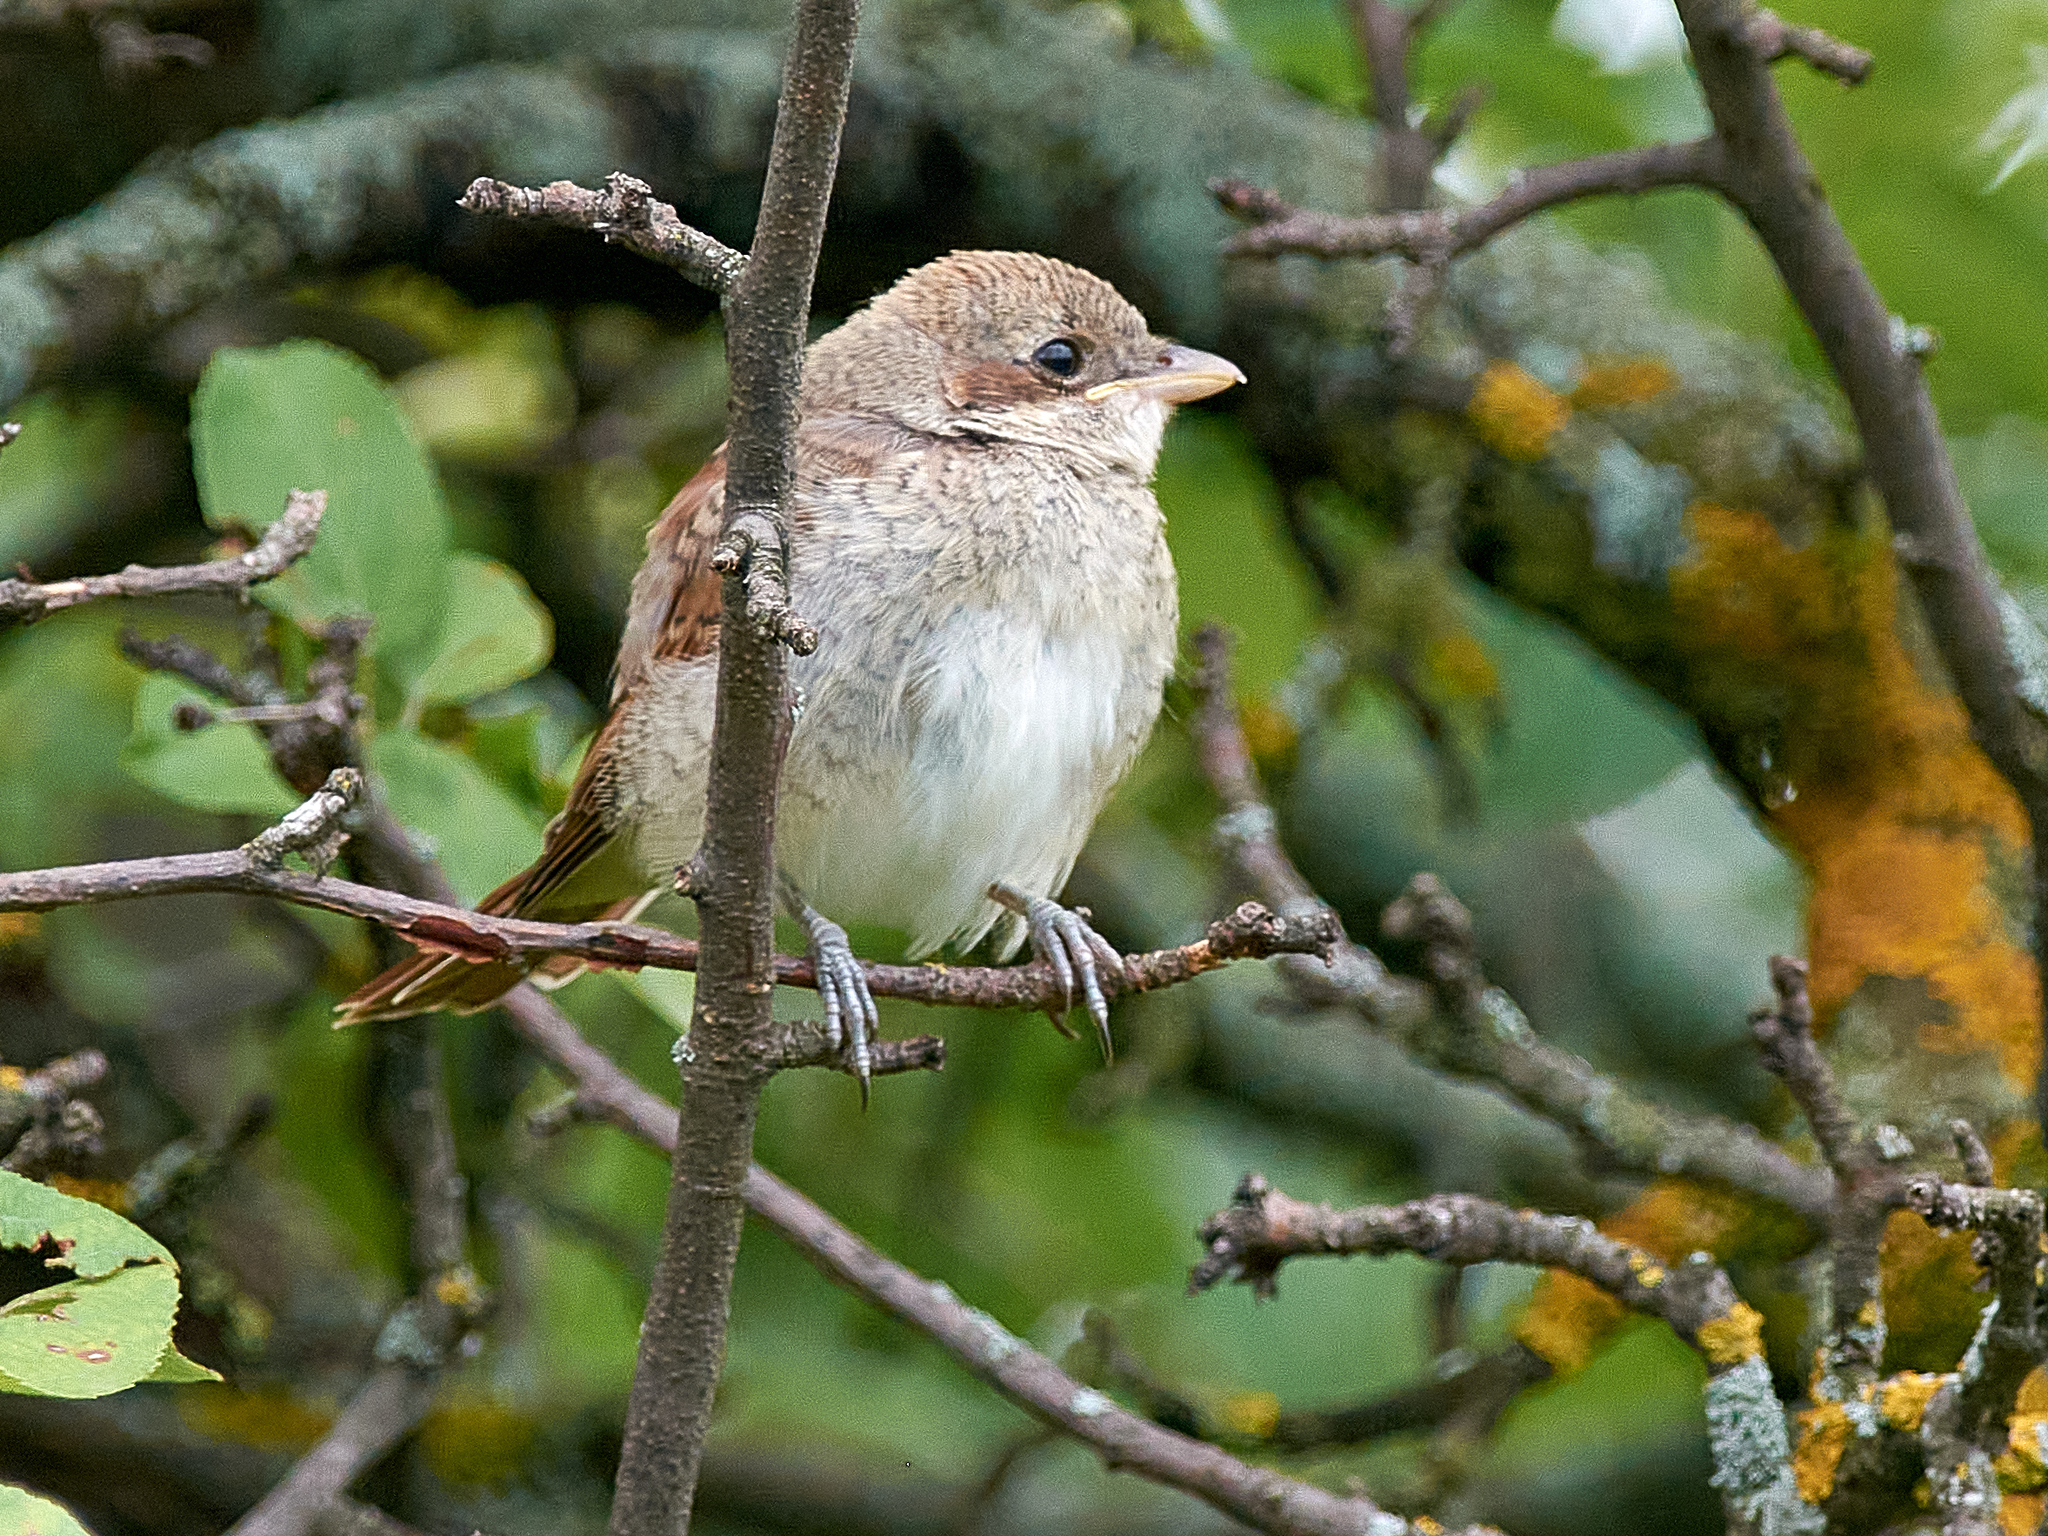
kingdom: Animalia
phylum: Chordata
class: Aves
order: Passeriformes
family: Laniidae
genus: Lanius
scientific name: Lanius collurio
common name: Red-backed shrike
